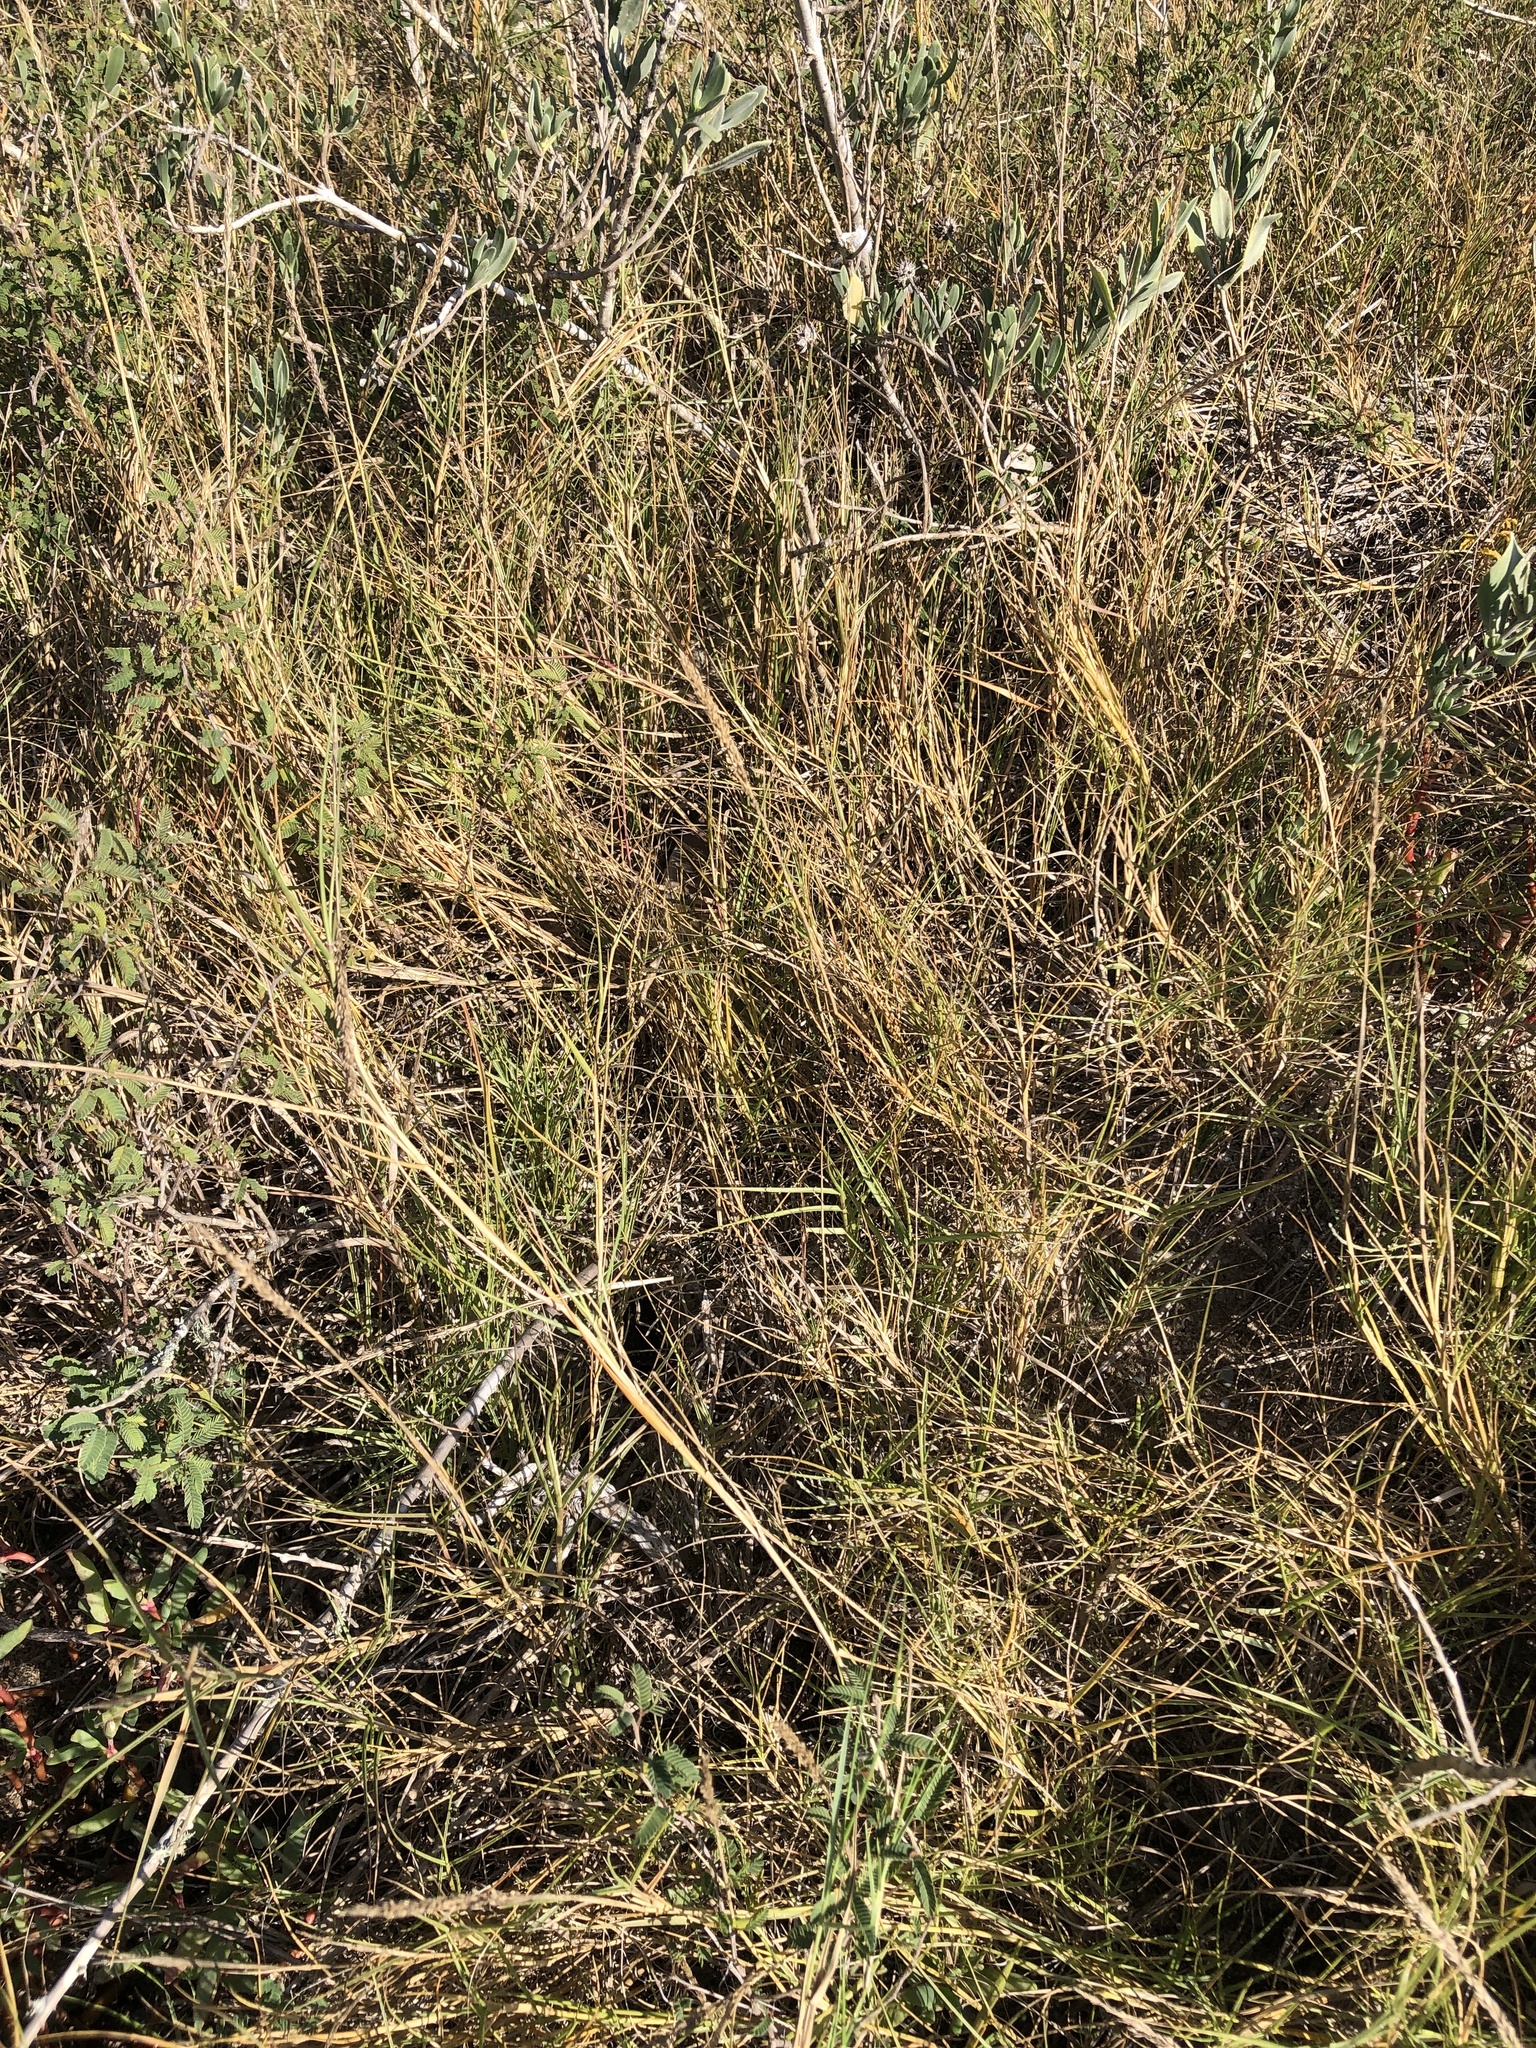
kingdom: Plantae
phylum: Tracheophyta
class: Liliopsida
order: Poales
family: Poaceae
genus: Sporobolus
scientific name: Sporobolus virginicus
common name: Beach dropseed
